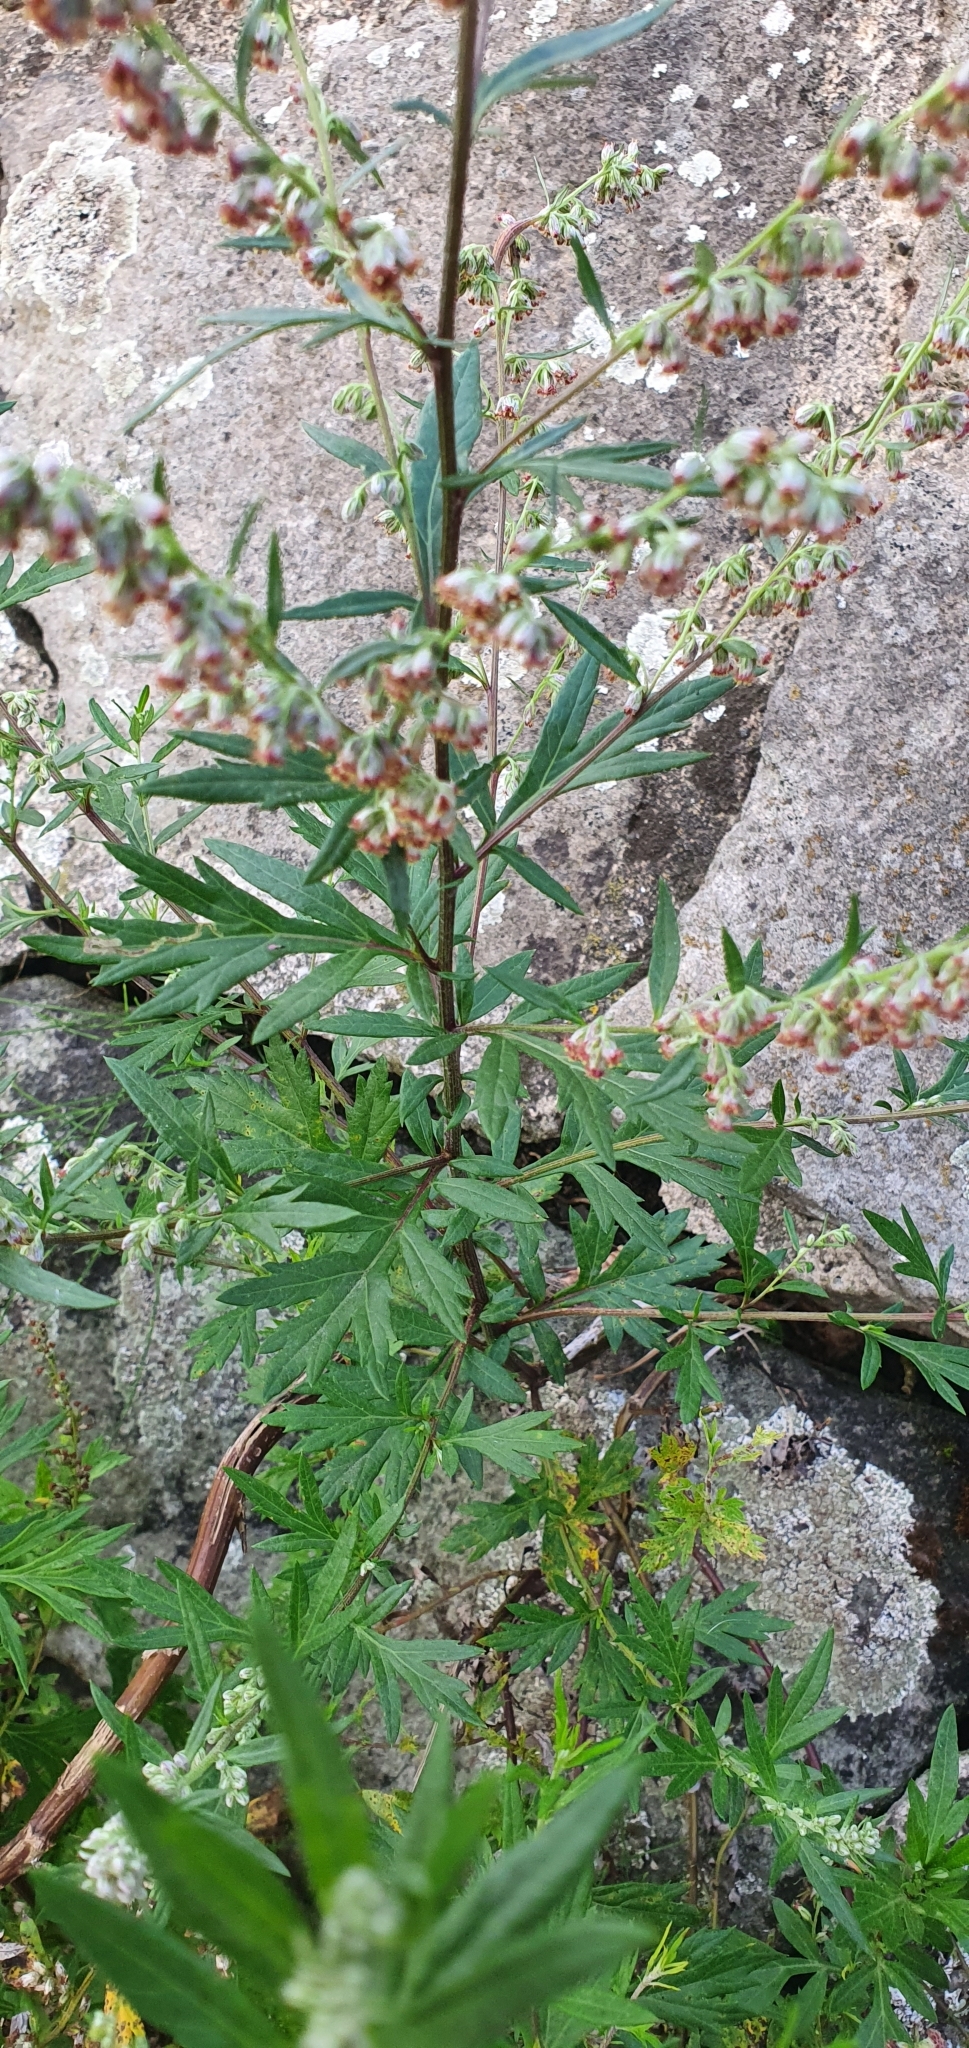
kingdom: Plantae
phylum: Tracheophyta
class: Magnoliopsida
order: Asterales
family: Asteraceae
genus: Artemisia
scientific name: Artemisia vulgaris
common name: Mugwort
